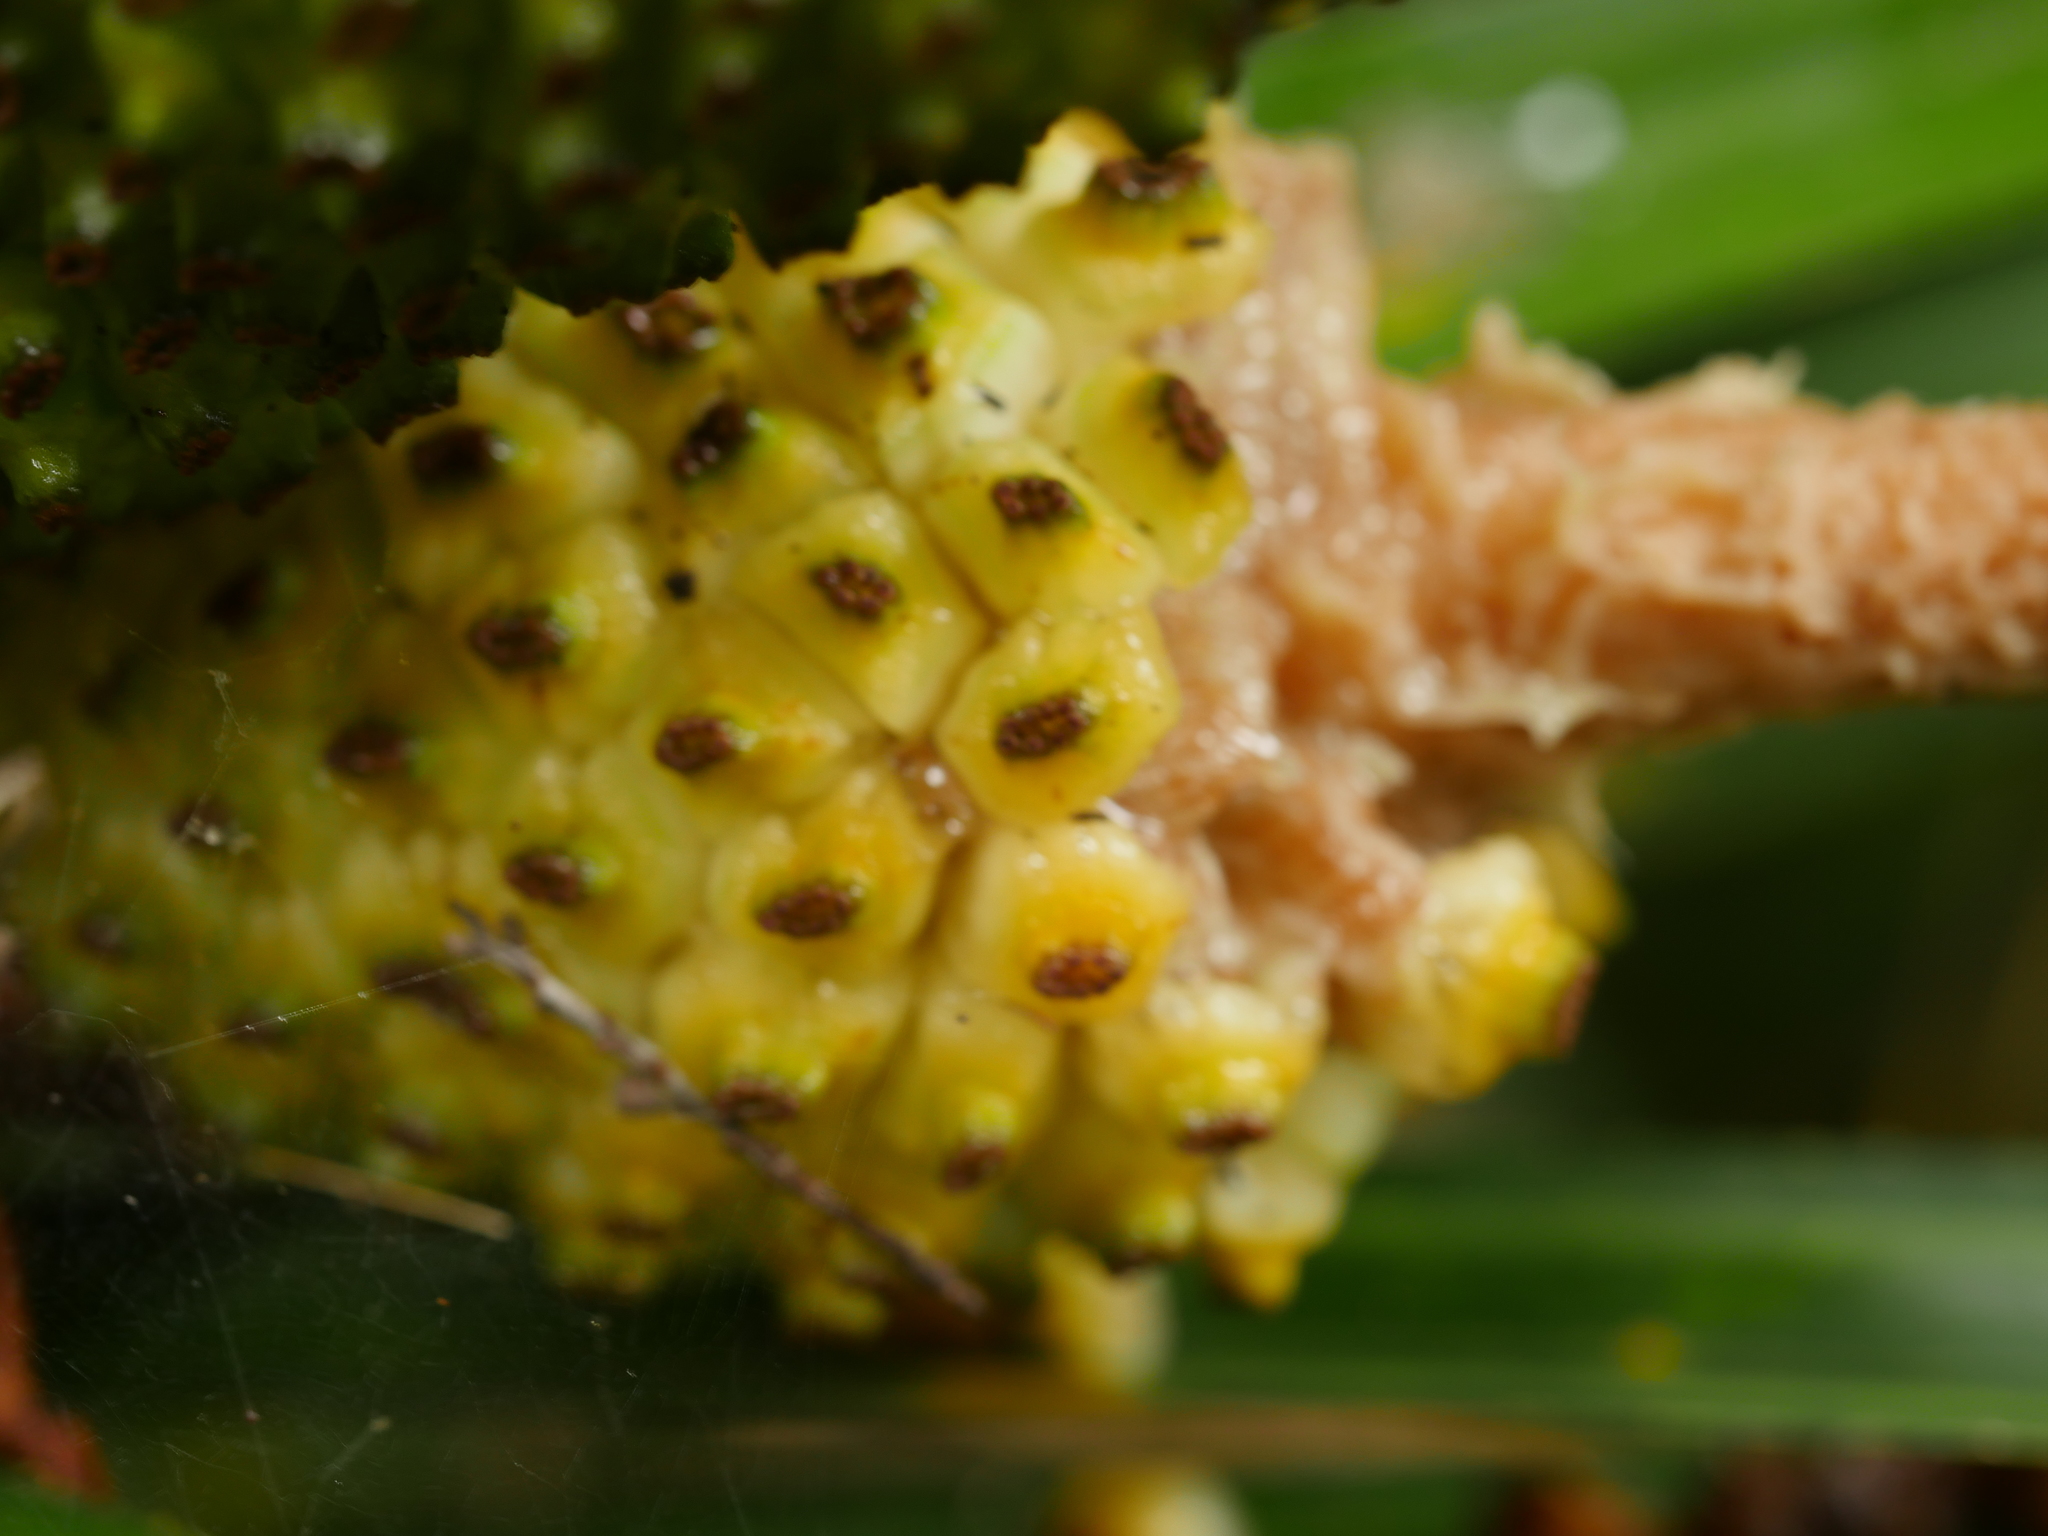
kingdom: Plantae
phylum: Tracheophyta
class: Liliopsida
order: Pandanales
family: Pandanaceae
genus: Freycinetia
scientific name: Freycinetia banksii
